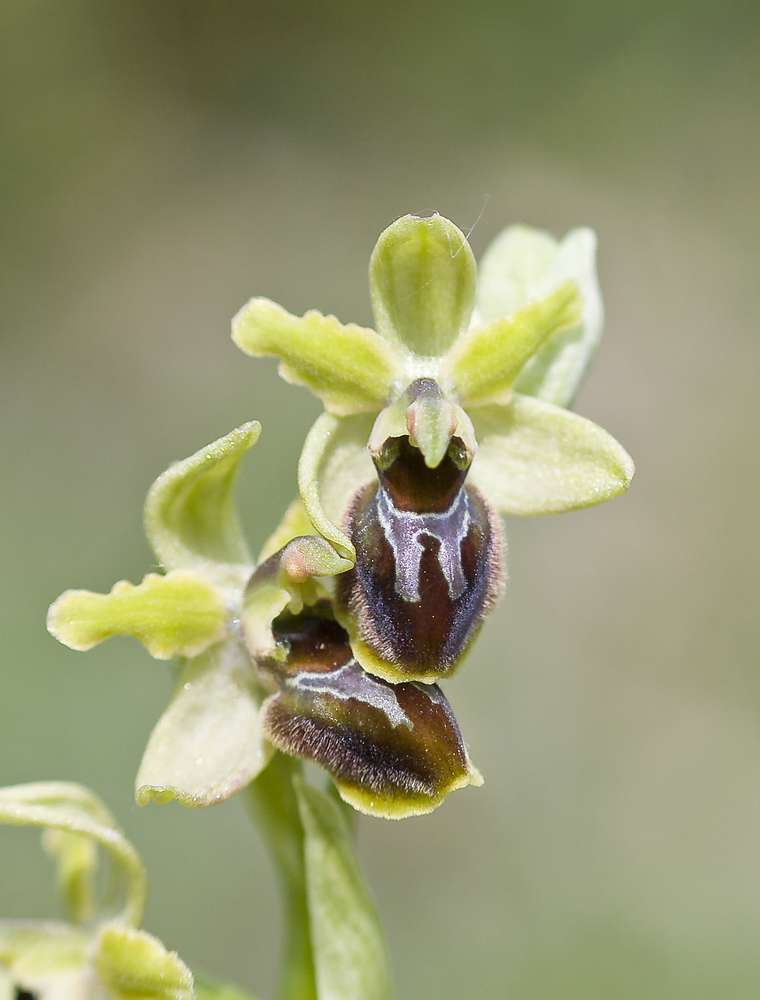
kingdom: Plantae
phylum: Tracheophyta
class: Liliopsida
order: Asparagales
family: Orchidaceae
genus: Ophrys
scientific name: Ophrys sphegodes
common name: Early spider-orchid
